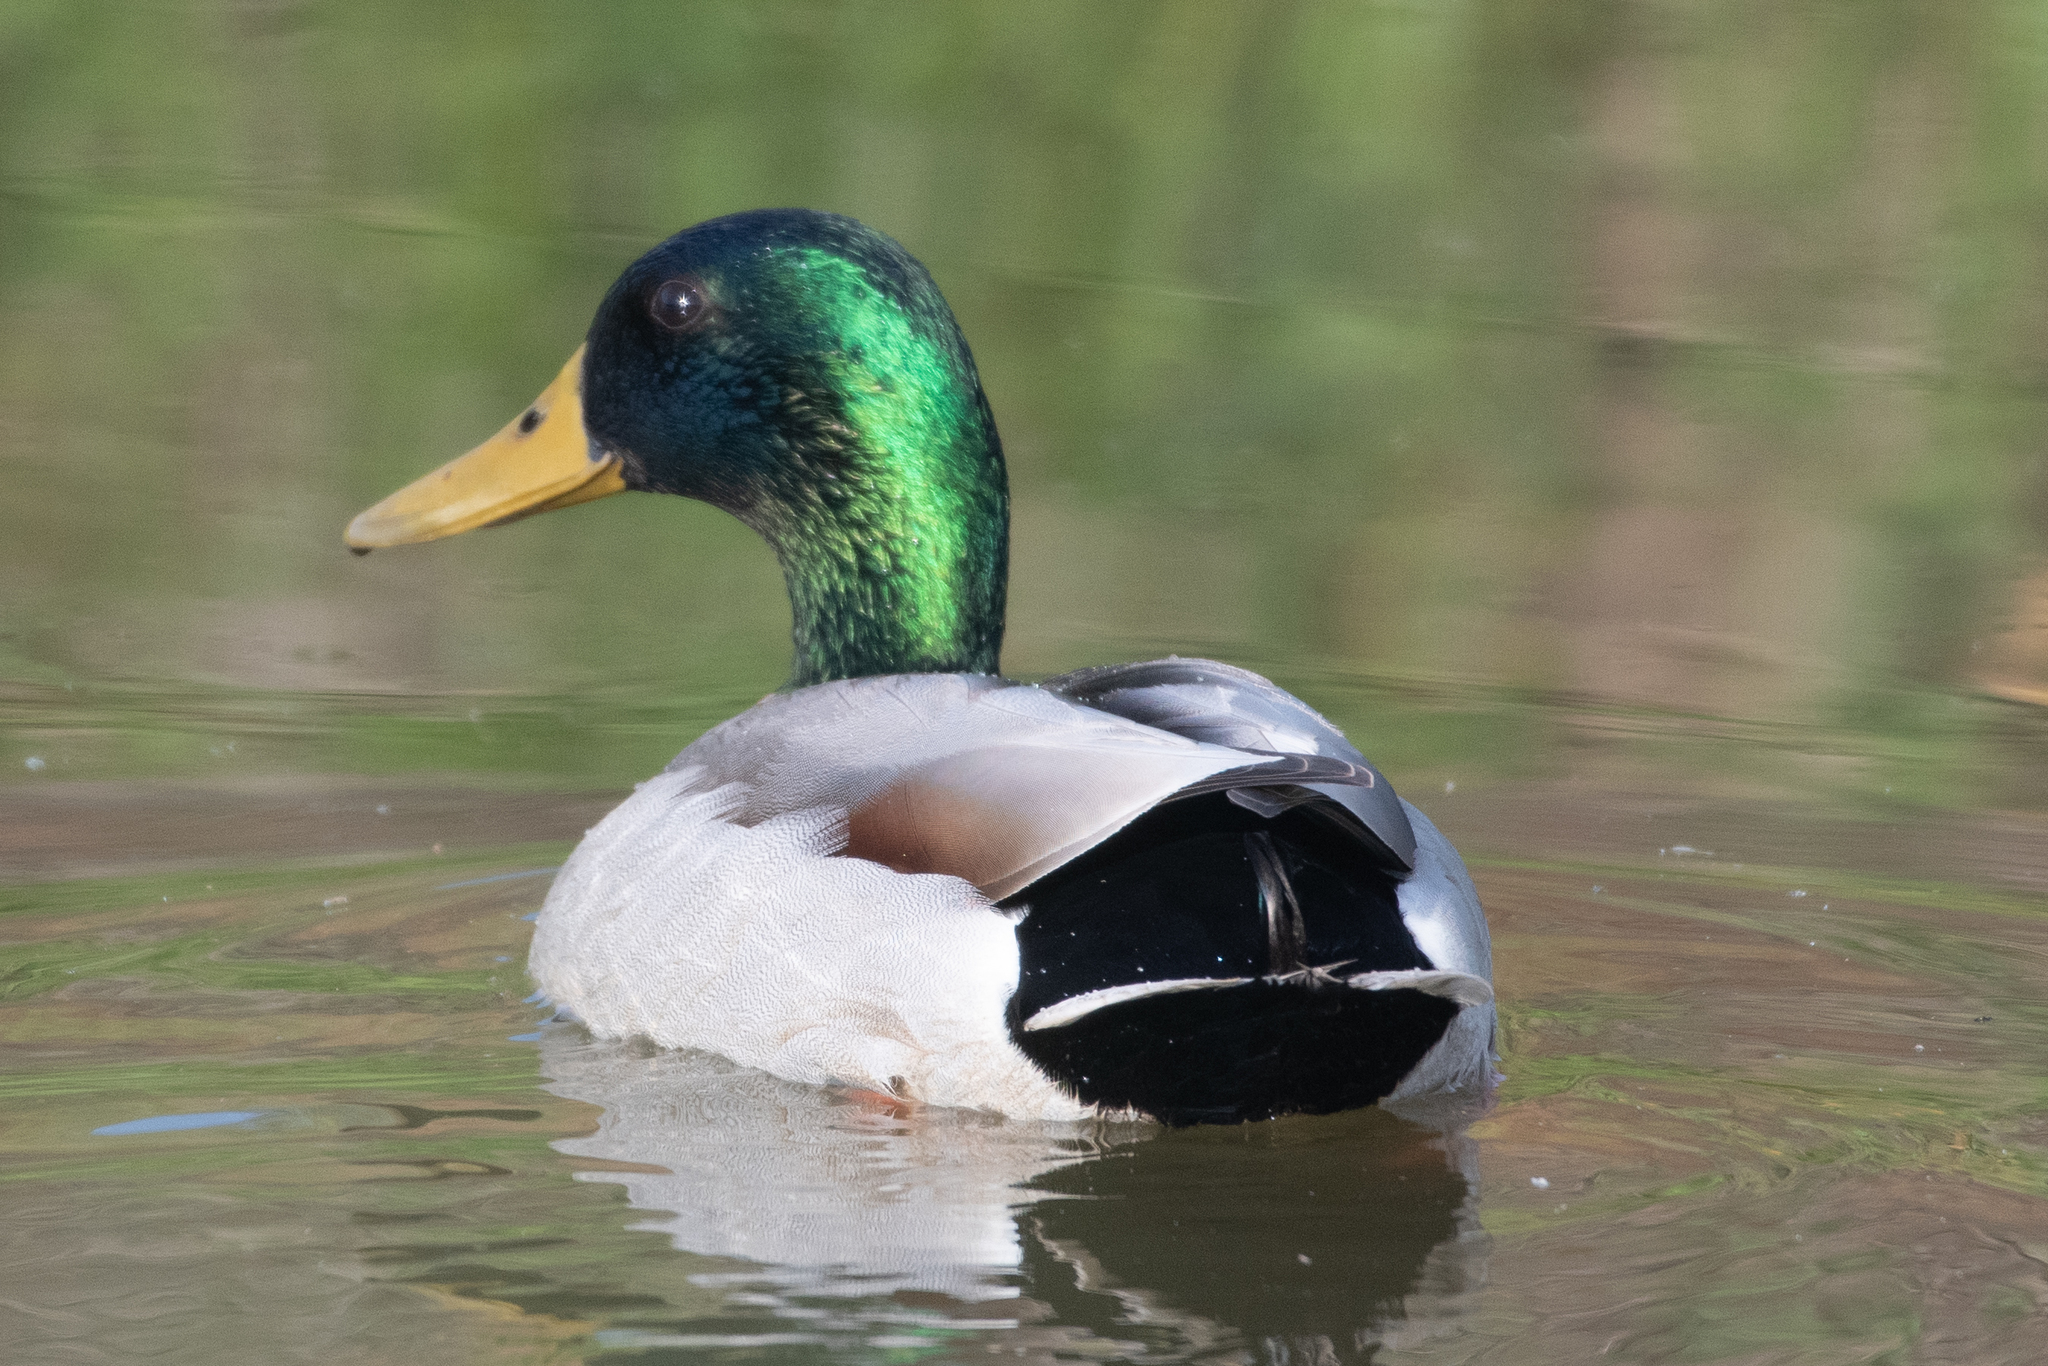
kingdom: Animalia
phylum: Chordata
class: Aves
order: Anseriformes
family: Anatidae
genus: Anas
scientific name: Anas platyrhynchos
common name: Mallard
